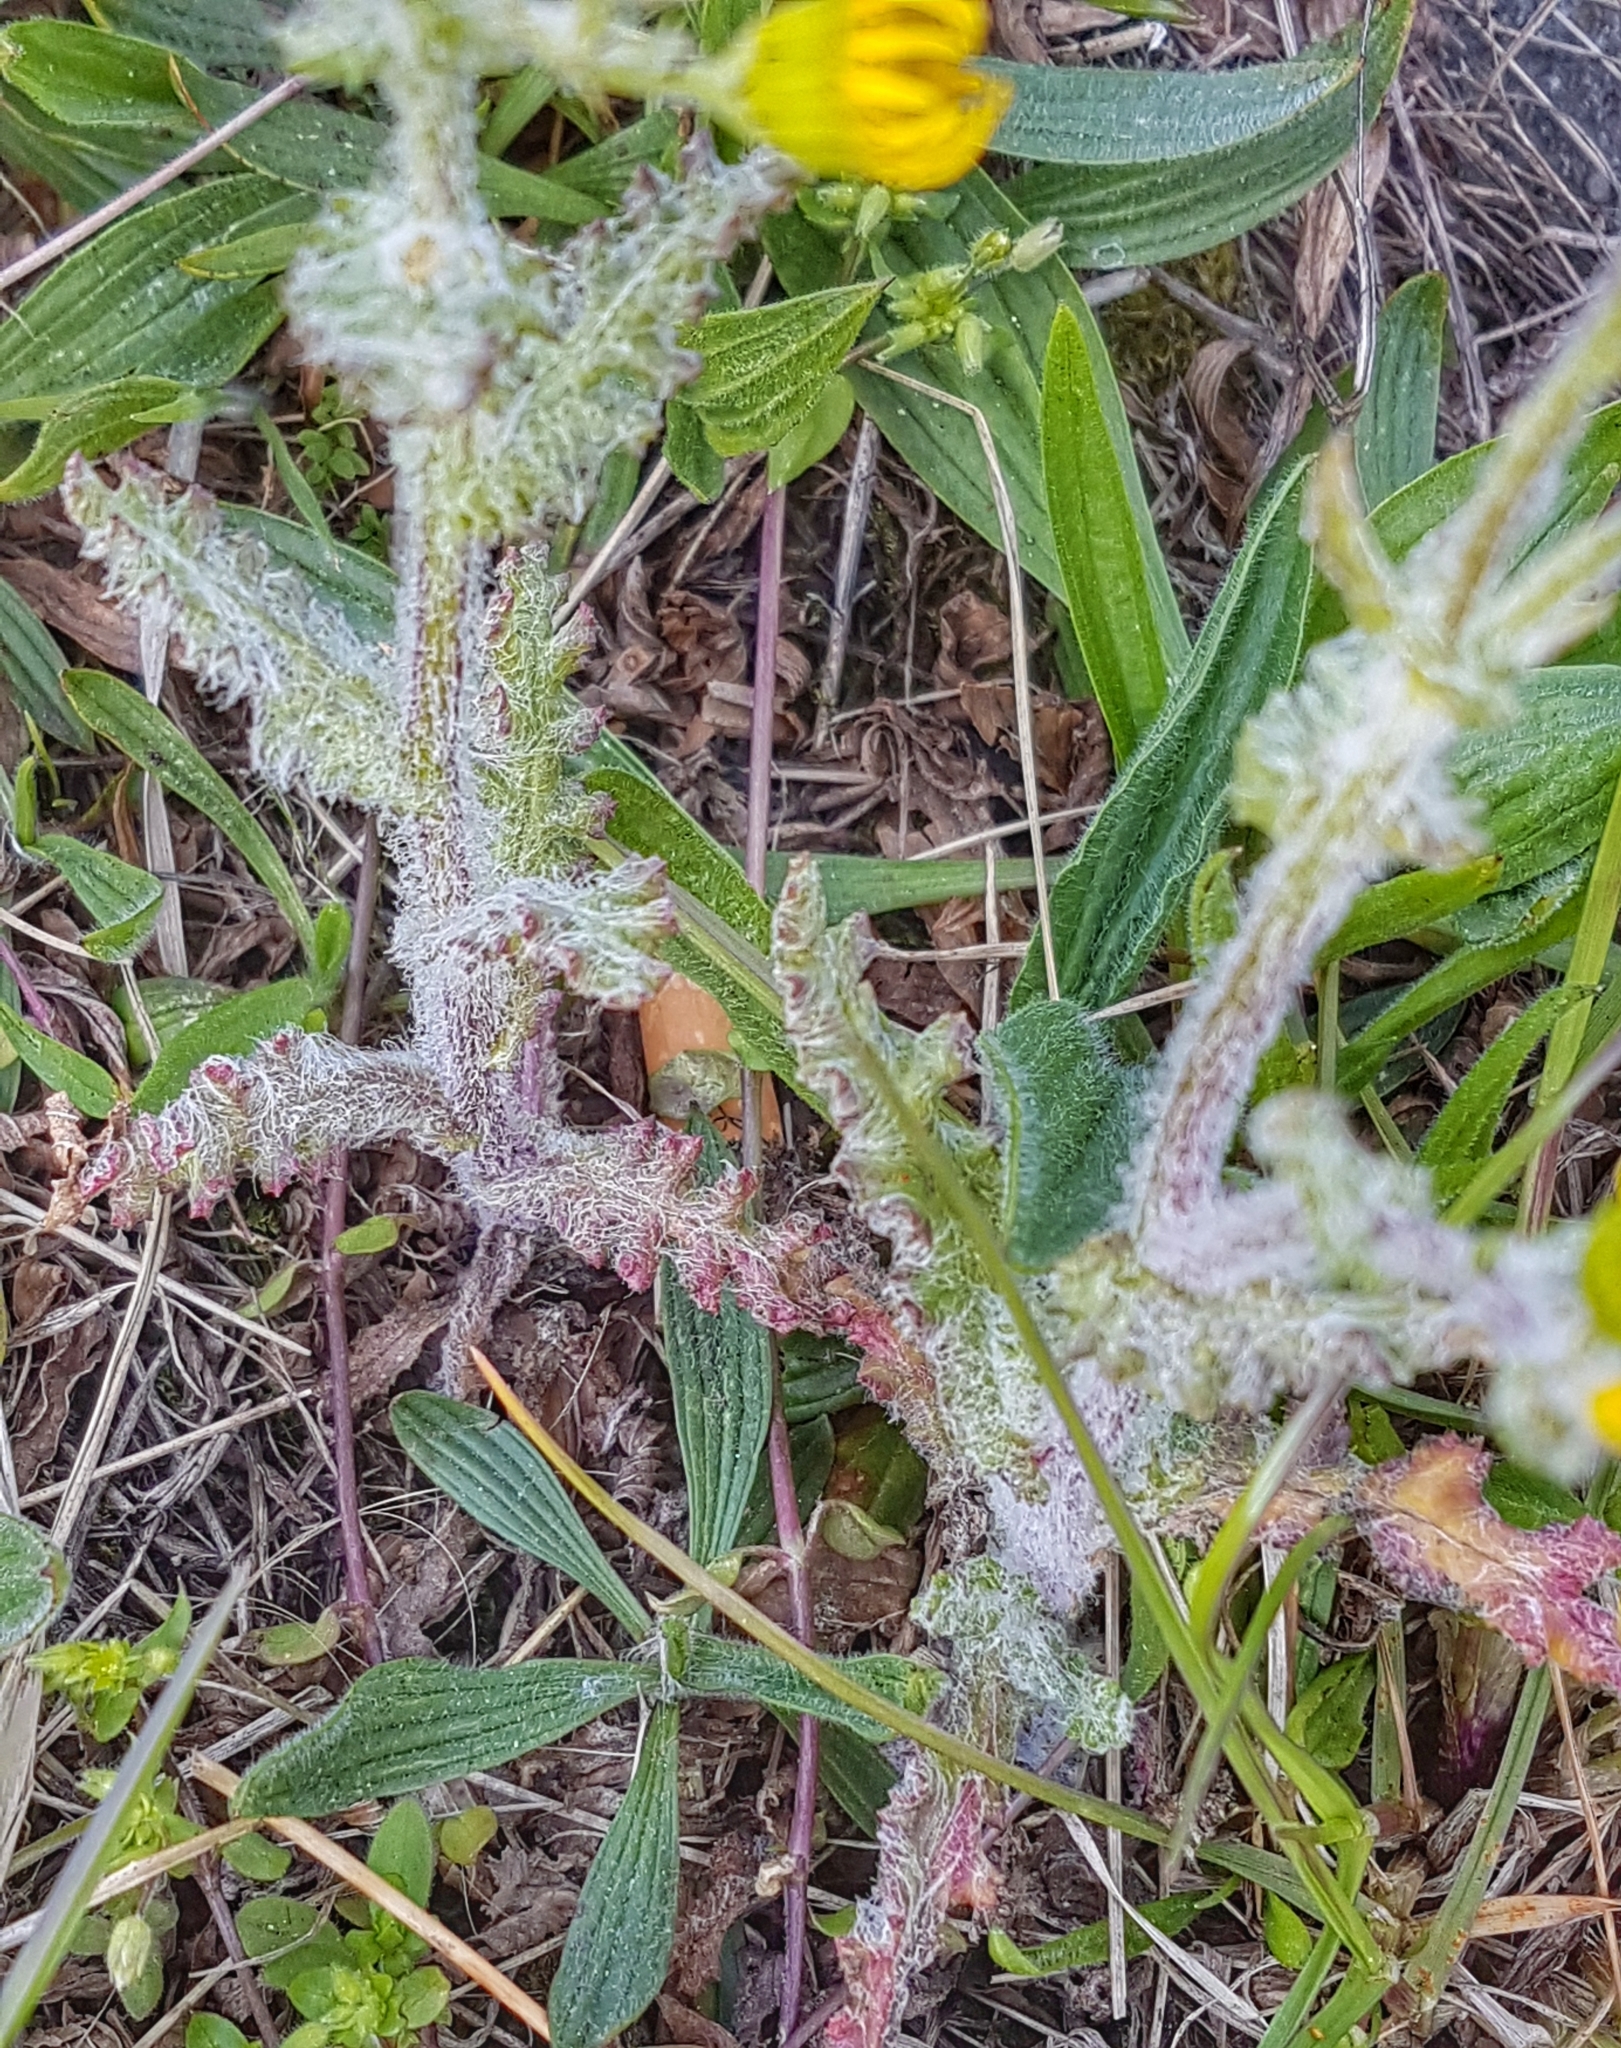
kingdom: Plantae
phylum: Tracheophyta
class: Magnoliopsida
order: Asterales
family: Asteraceae
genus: Senecio
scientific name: Senecio vernalis
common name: Eastern groundsel
